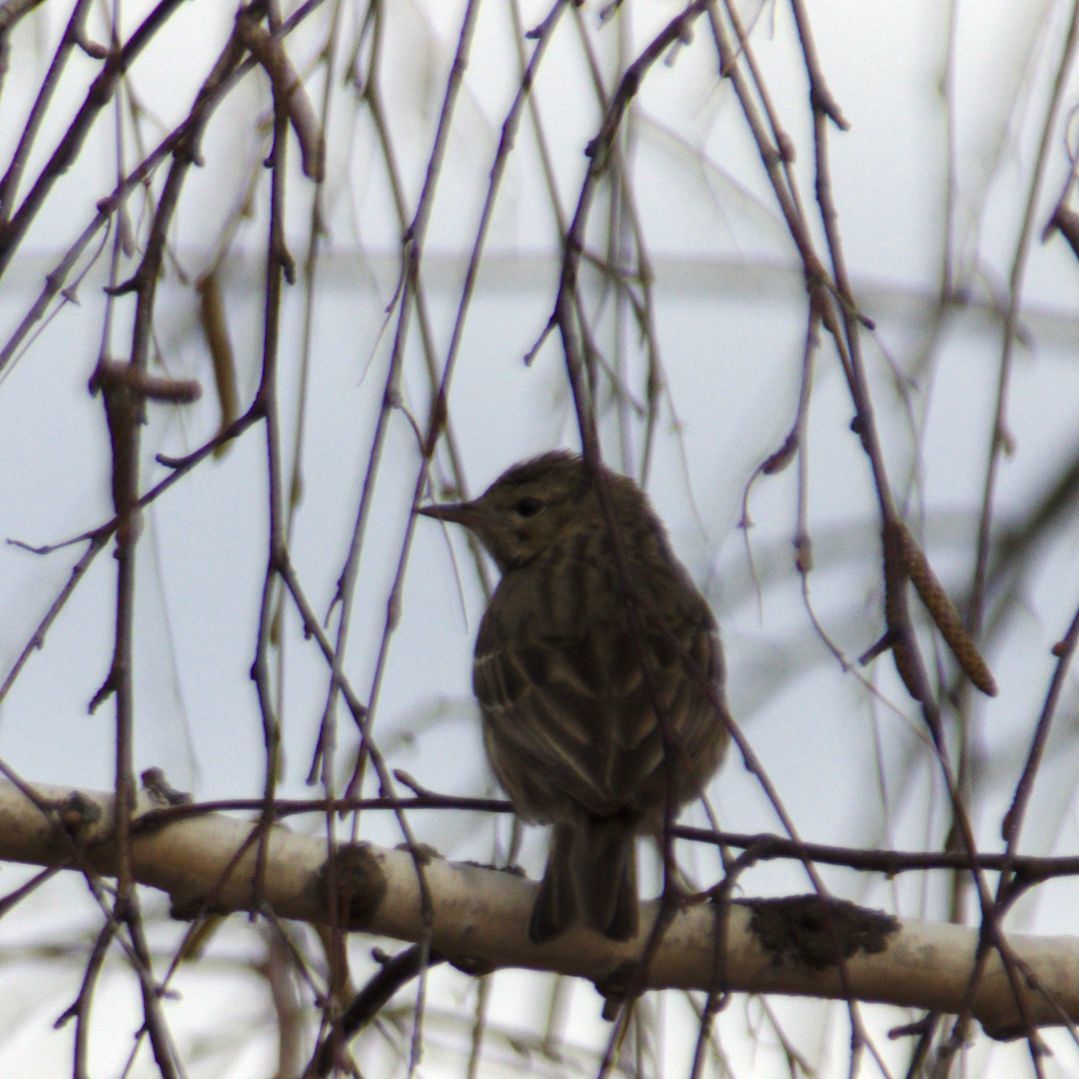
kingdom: Animalia
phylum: Chordata
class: Aves
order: Passeriformes
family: Motacillidae
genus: Anthus
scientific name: Anthus trivialis
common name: Tree pipit
